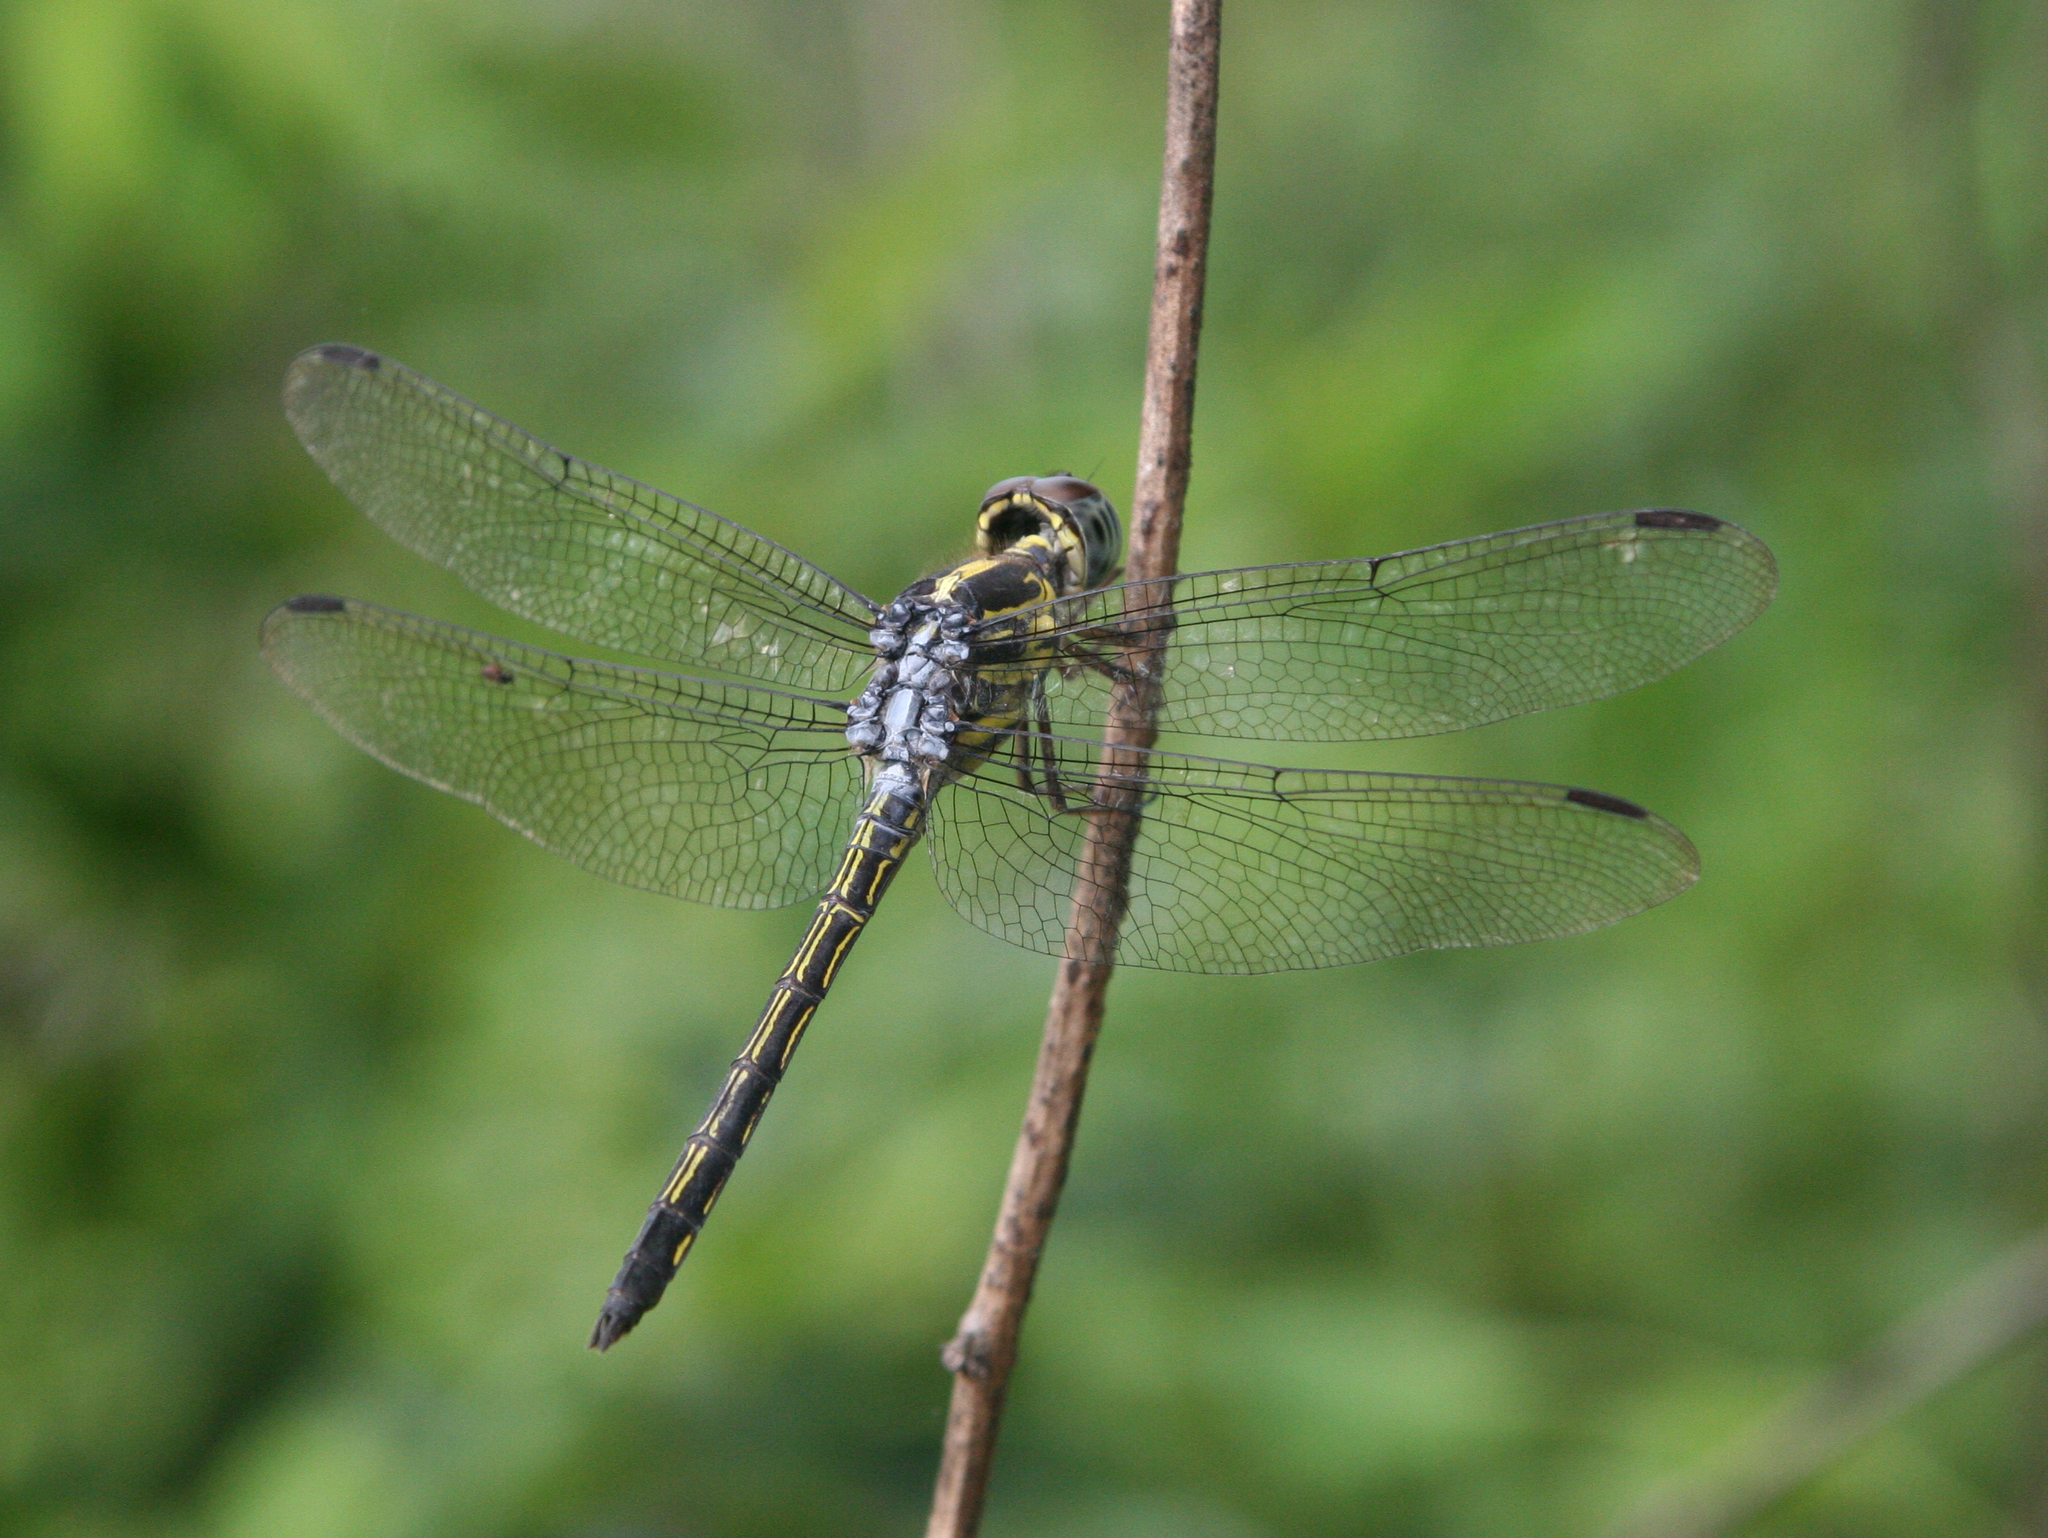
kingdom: Animalia
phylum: Arthropoda
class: Insecta
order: Odonata
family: Libellulidae
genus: Cratilla
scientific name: Cratilla lineata
